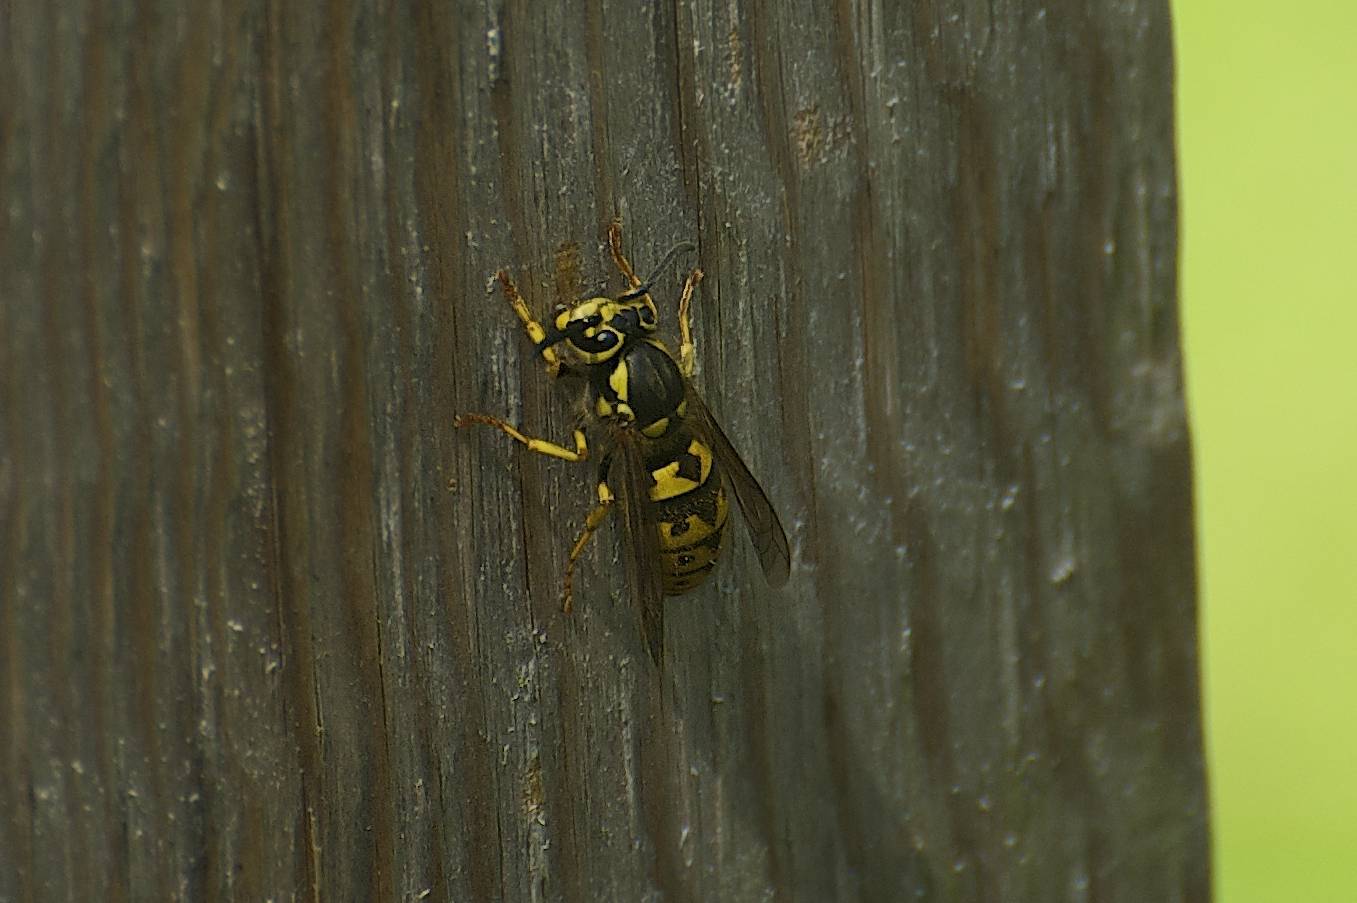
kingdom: Animalia
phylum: Arthropoda
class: Insecta
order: Hymenoptera
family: Vespidae
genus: Vespula
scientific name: Vespula pensylvanica
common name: Western yellowjacket
